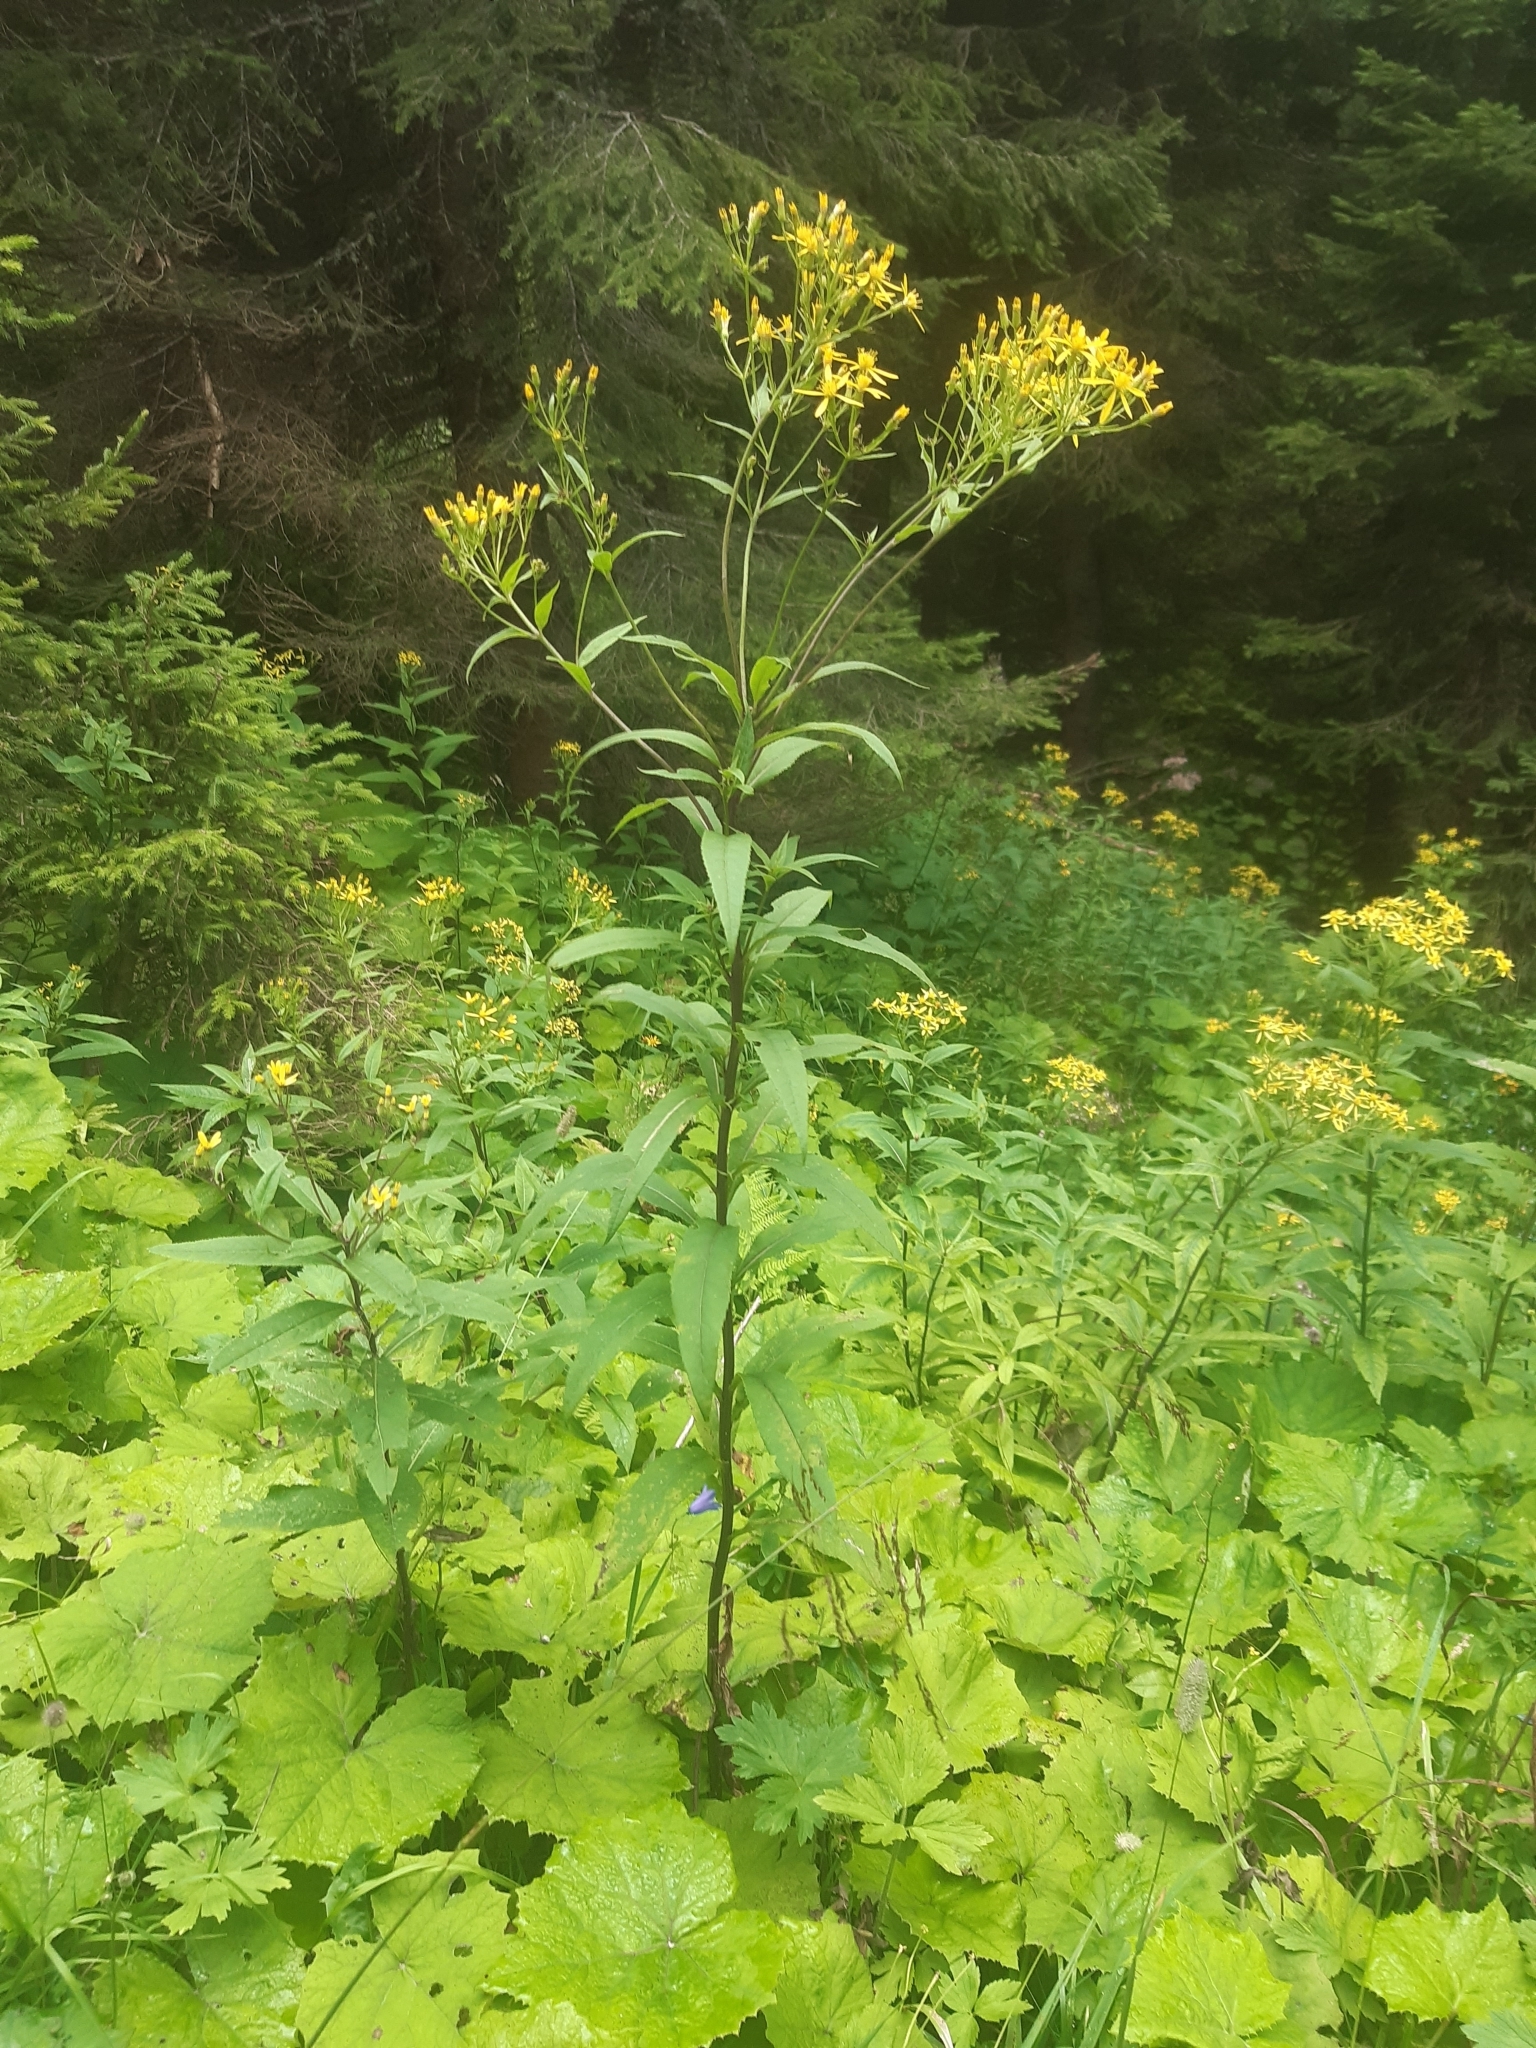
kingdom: Plantae
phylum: Tracheophyta
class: Magnoliopsida
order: Asterales
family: Asteraceae
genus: Senecio
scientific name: Senecio ovatus
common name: Wood ragwort
